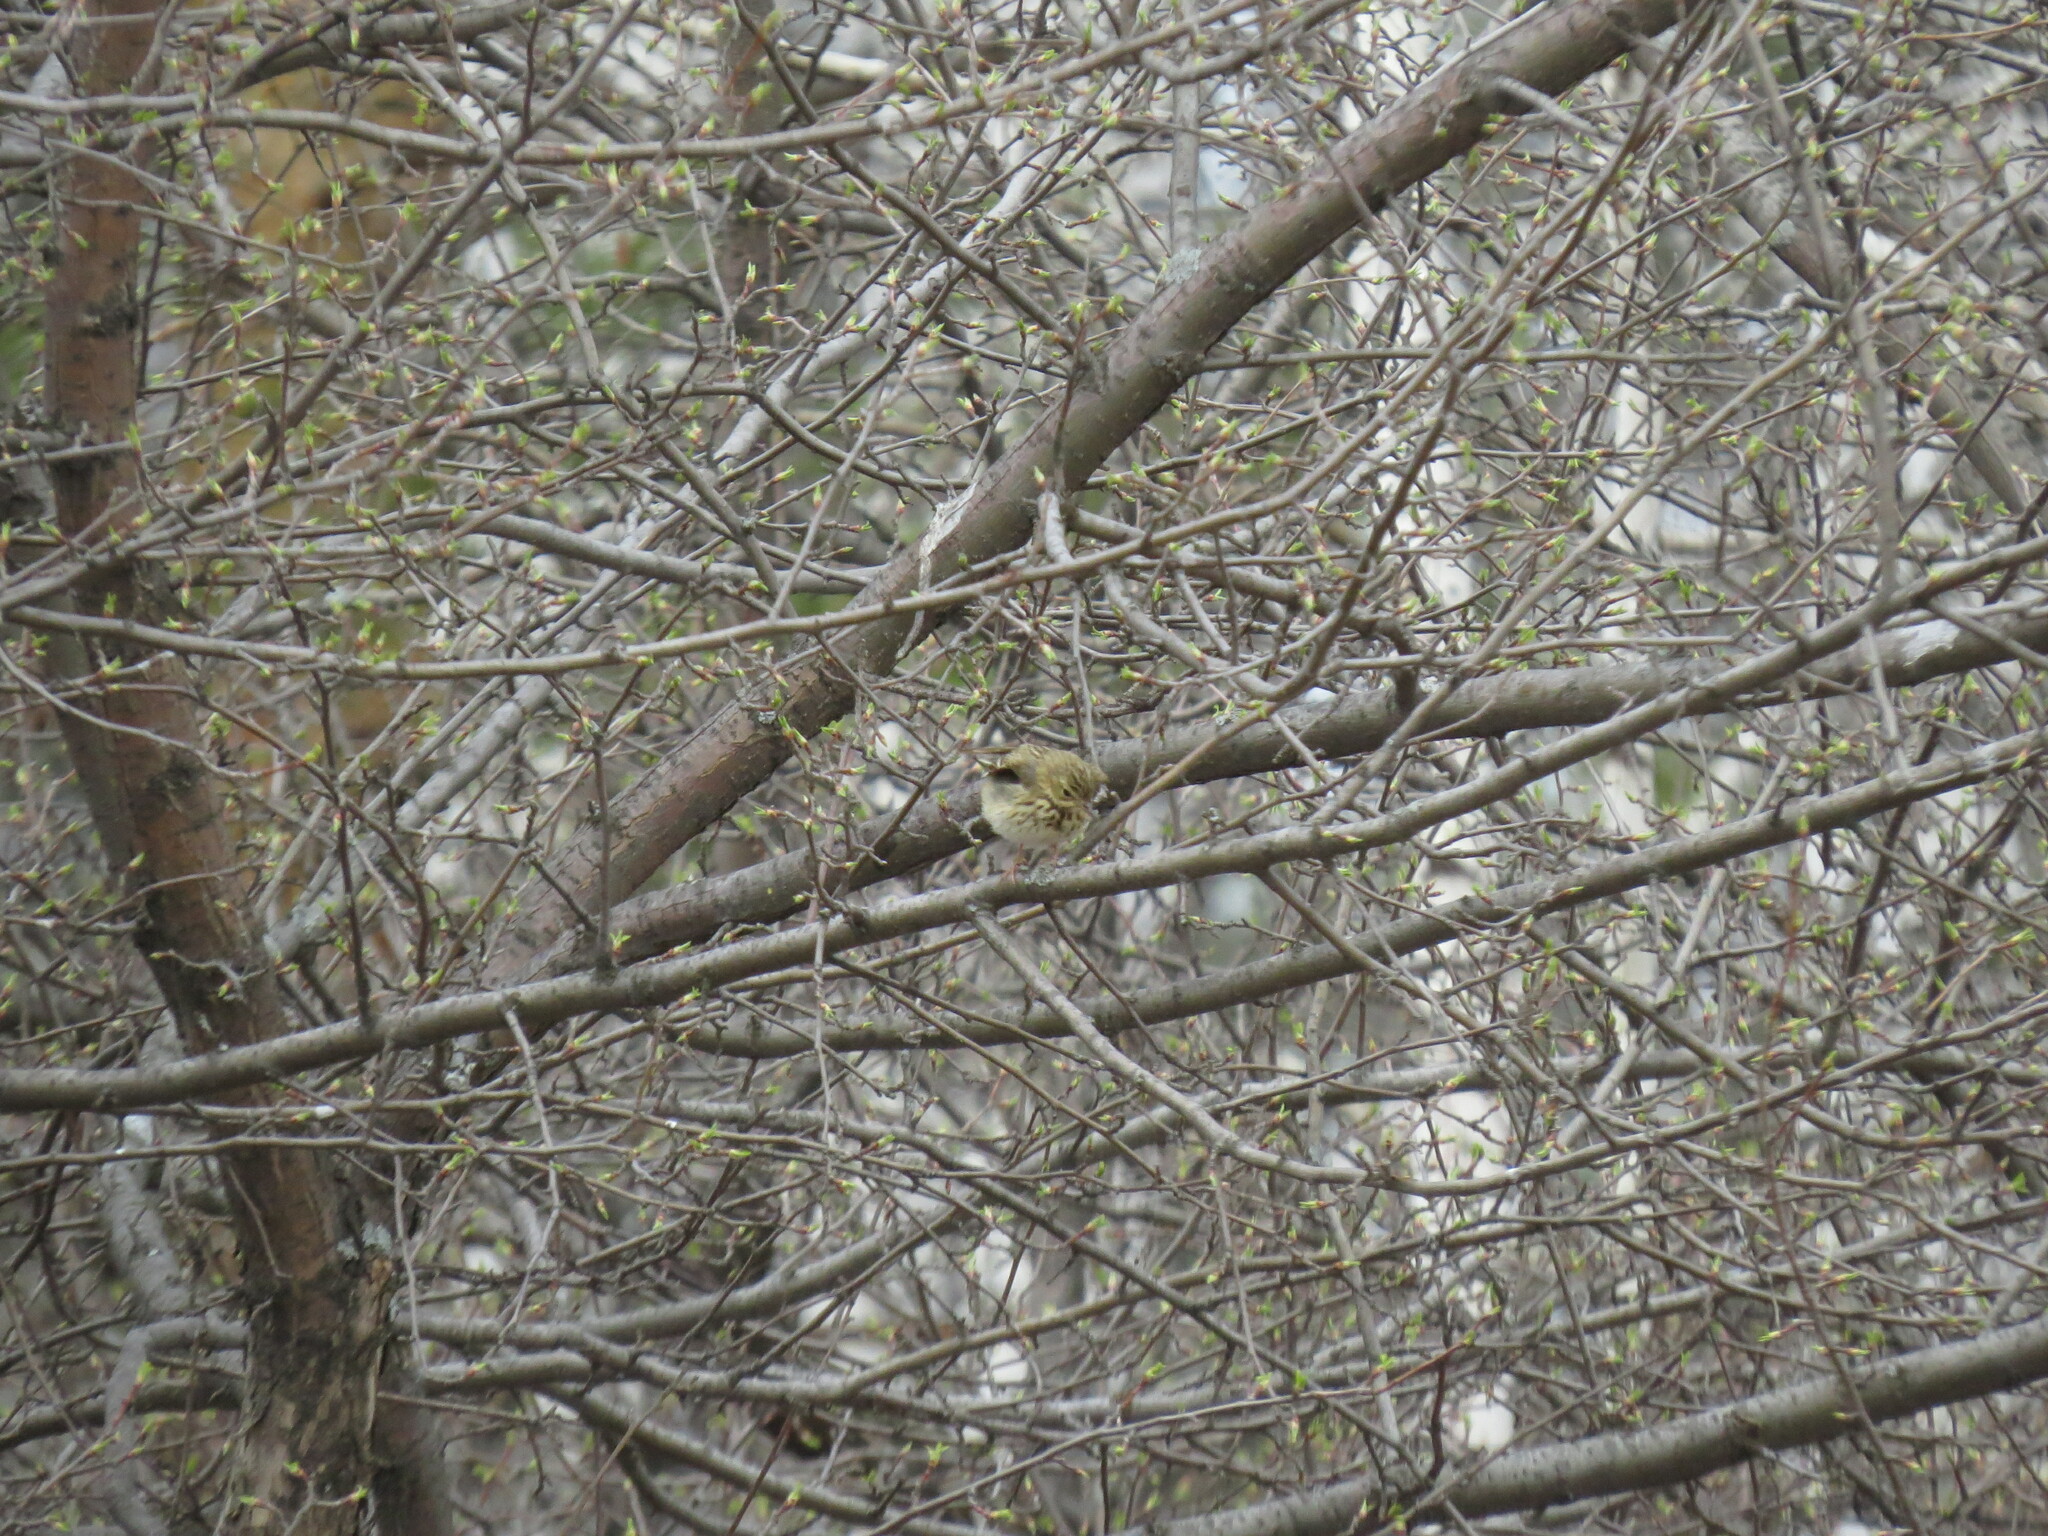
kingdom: Animalia
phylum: Chordata
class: Aves
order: Passeriformes
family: Motacillidae
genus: Anthus
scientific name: Anthus trivialis
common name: Tree pipit
